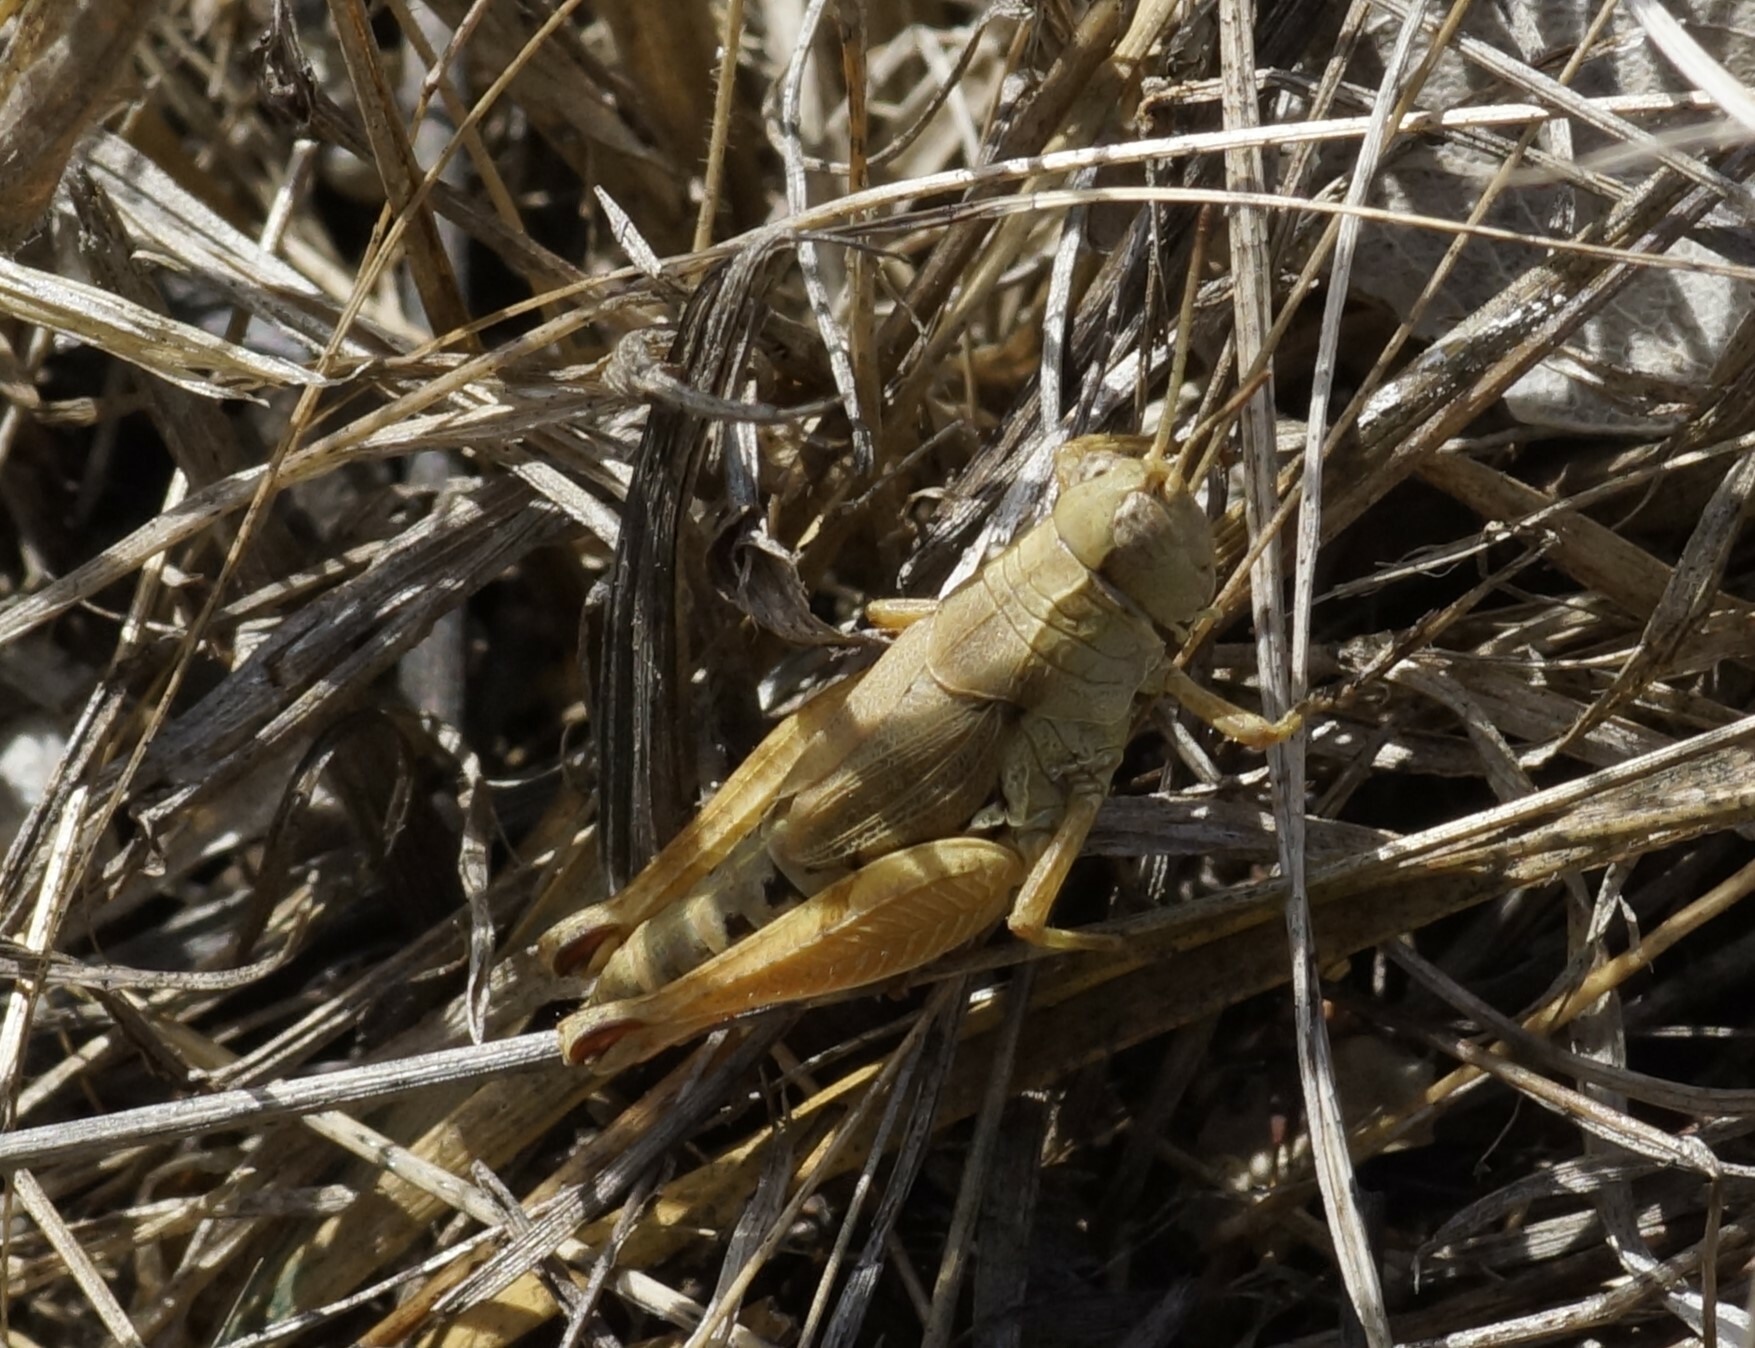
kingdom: Animalia
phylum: Arthropoda
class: Insecta
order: Orthoptera
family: Acrididae
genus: Phaulacridium
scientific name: Phaulacridium vittatum
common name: Wingless grasshopper
